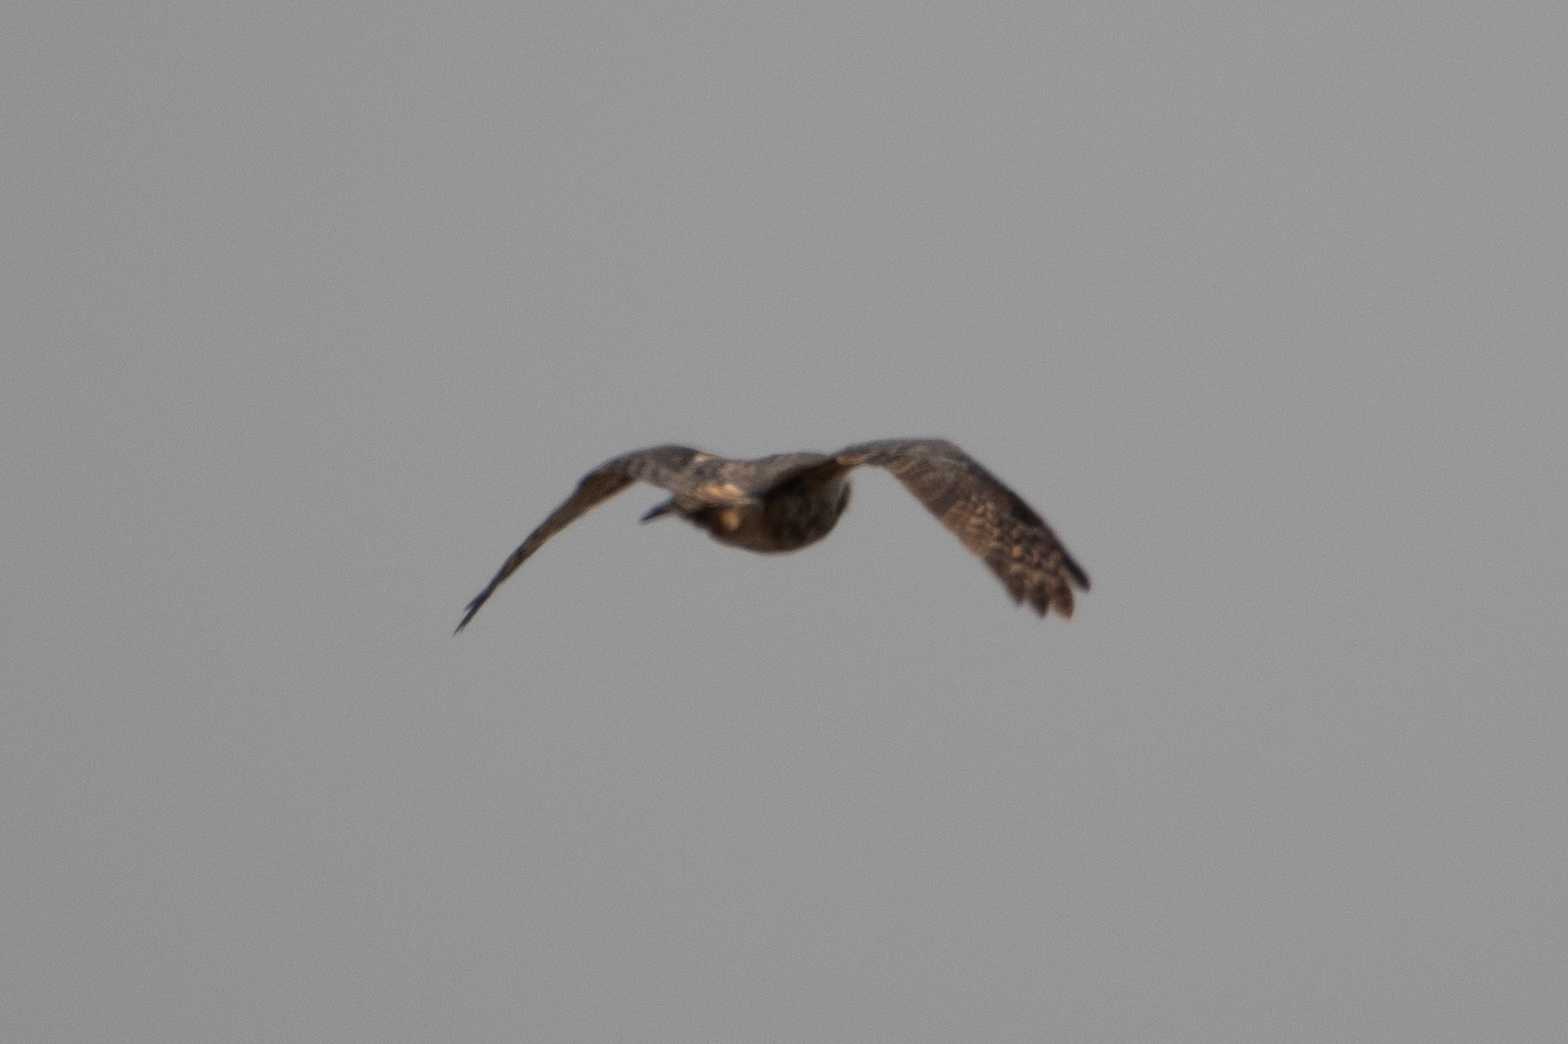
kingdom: Animalia
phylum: Chordata
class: Aves
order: Strigiformes
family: Strigidae
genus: Bubo
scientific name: Bubo virginianus
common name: Great horned owl
